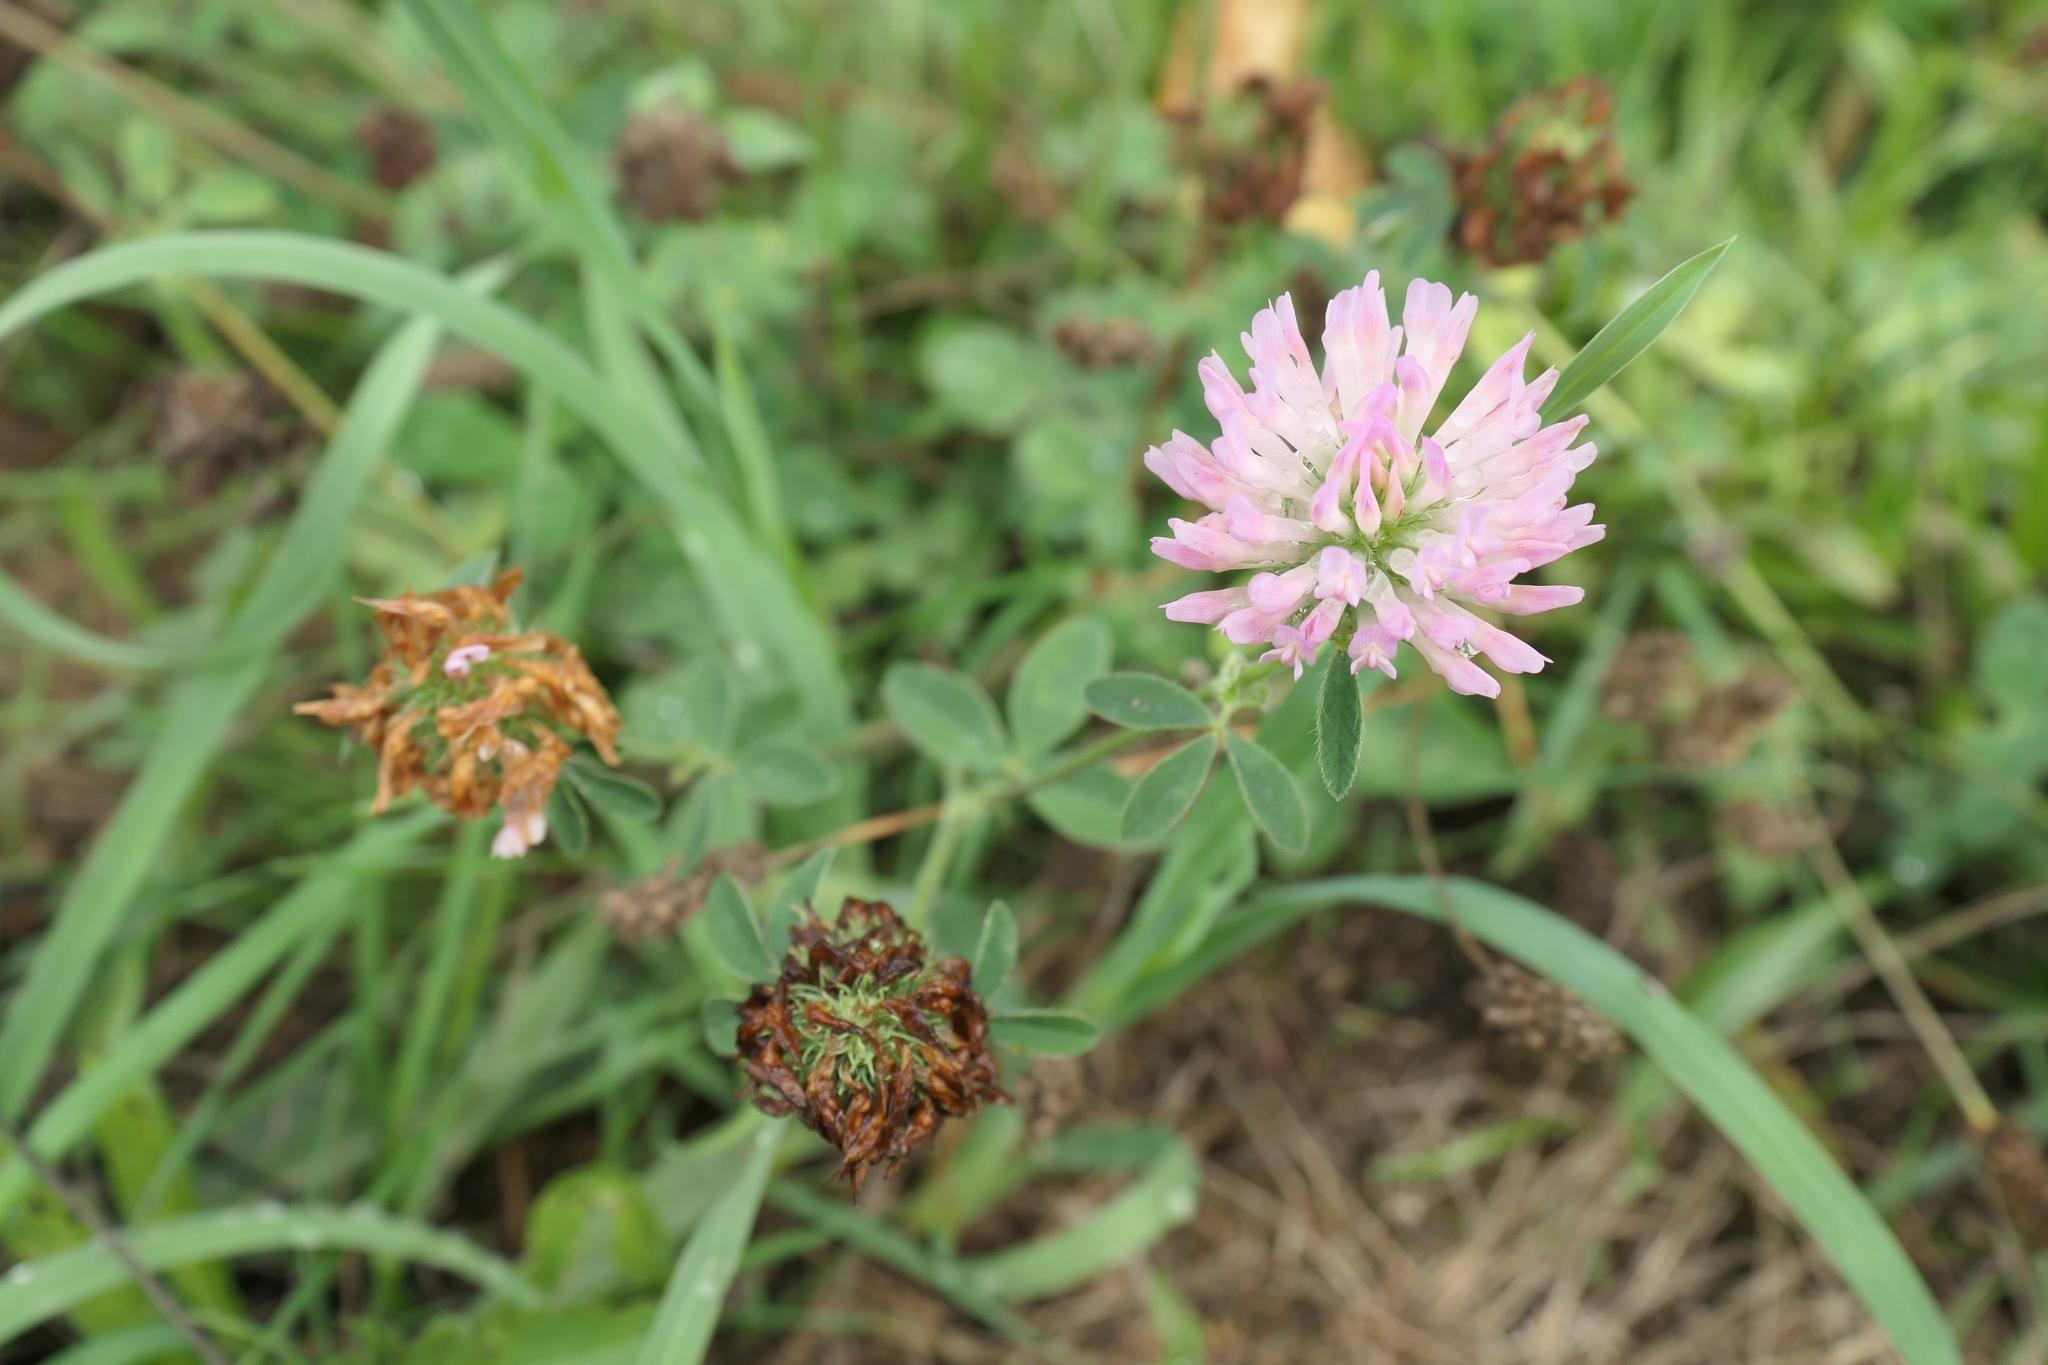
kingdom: Plantae
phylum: Tracheophyta
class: Magnoliopsida
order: Fabales
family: Fabaceae
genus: Trifolium
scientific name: Trifolium pratense
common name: Red clover
